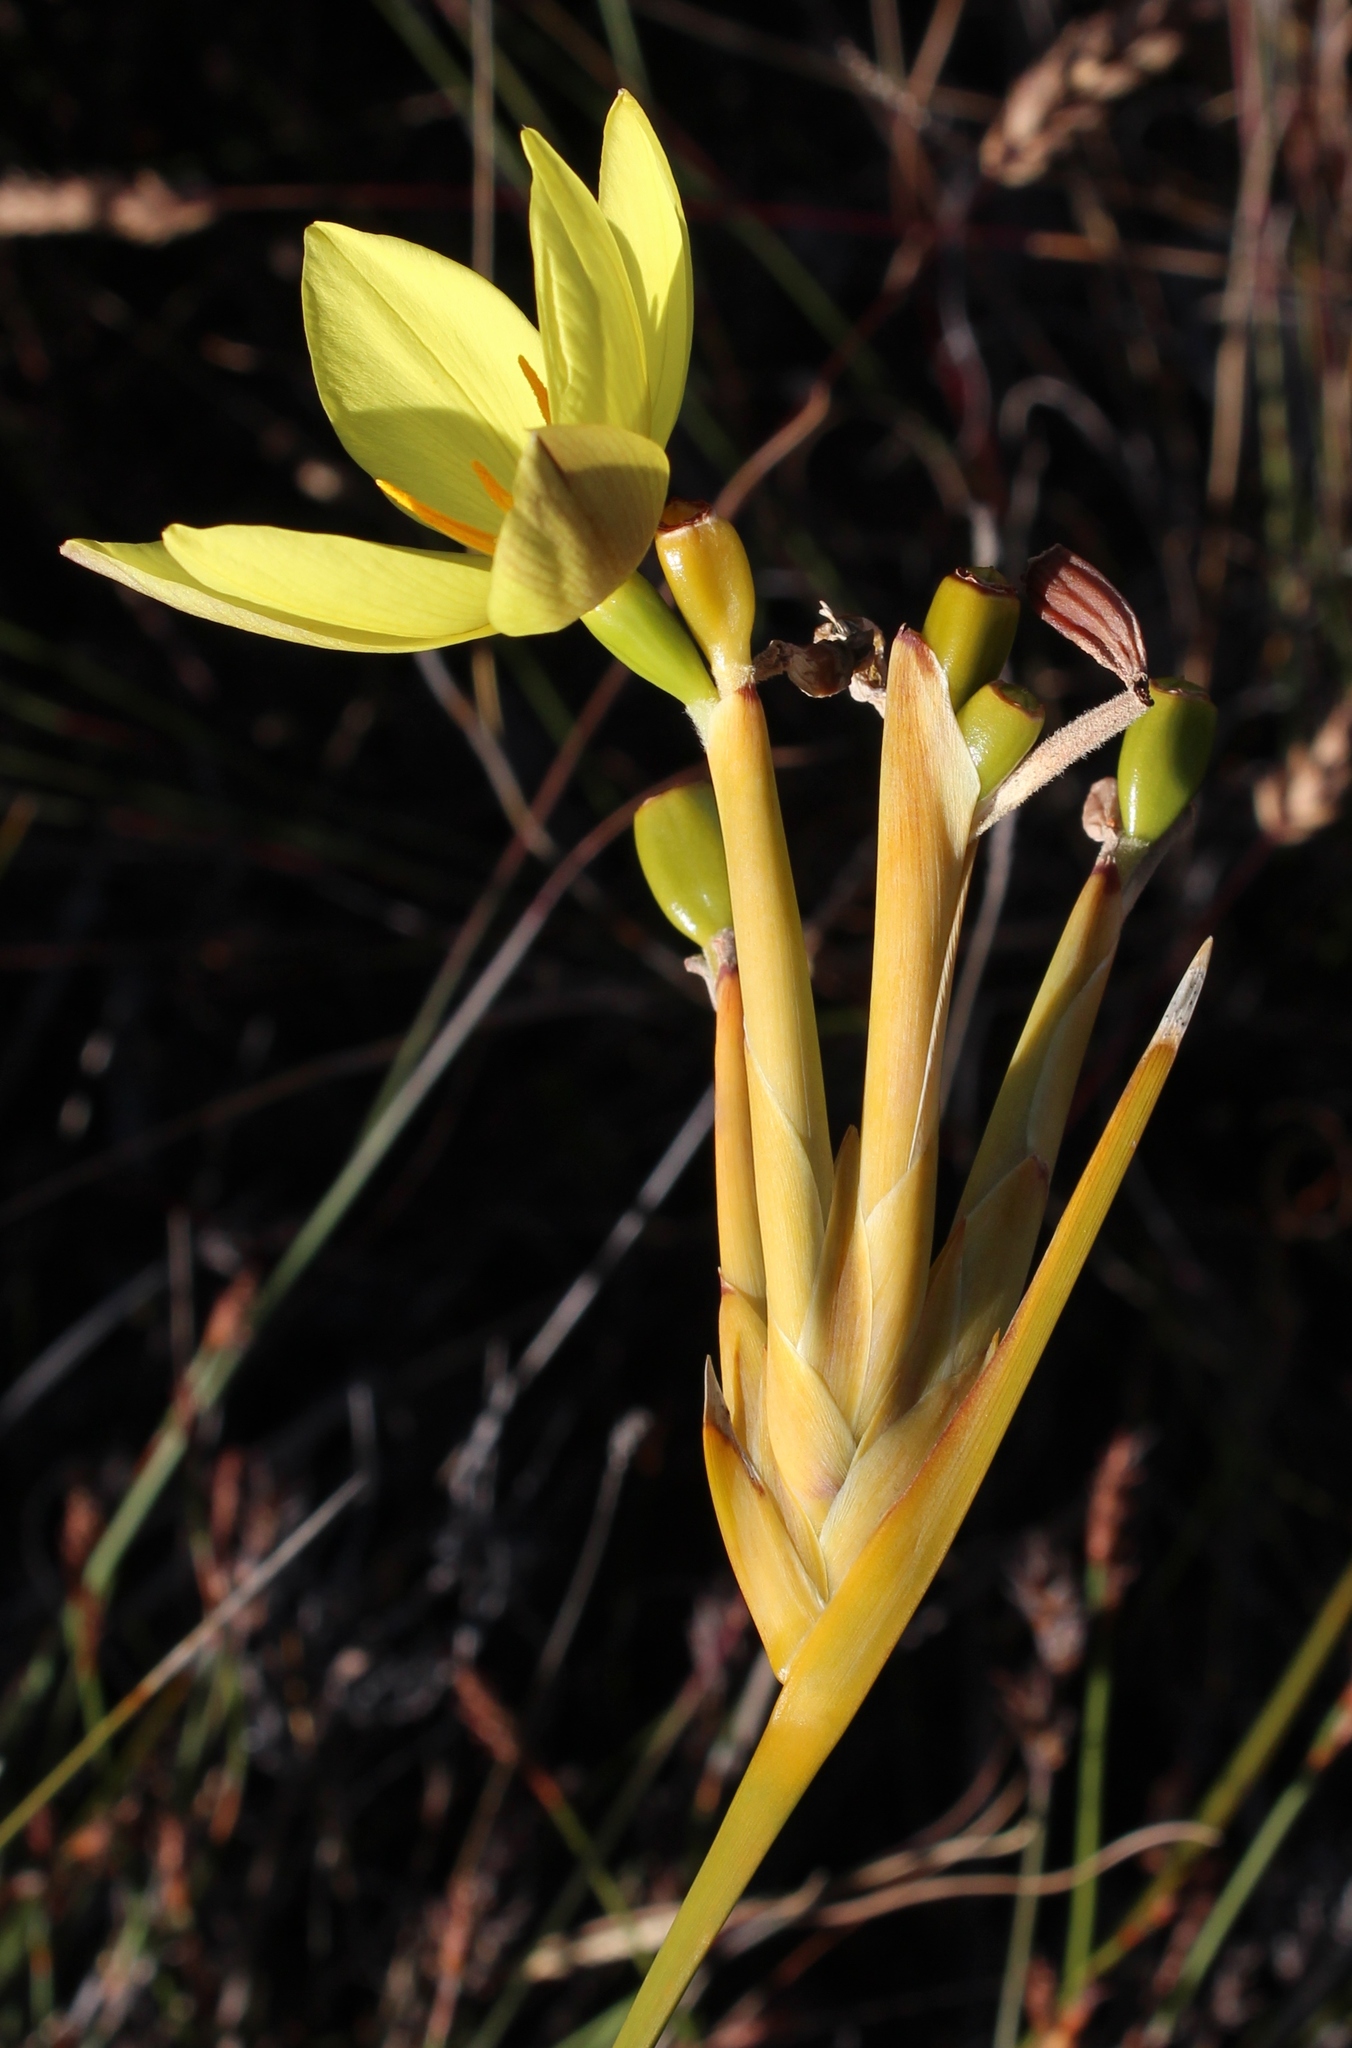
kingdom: Plantae
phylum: Tracheophyta
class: Liliopsida
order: Asparagales
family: Iridaceae
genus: Bobartia
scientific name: Bobartia gladiata
